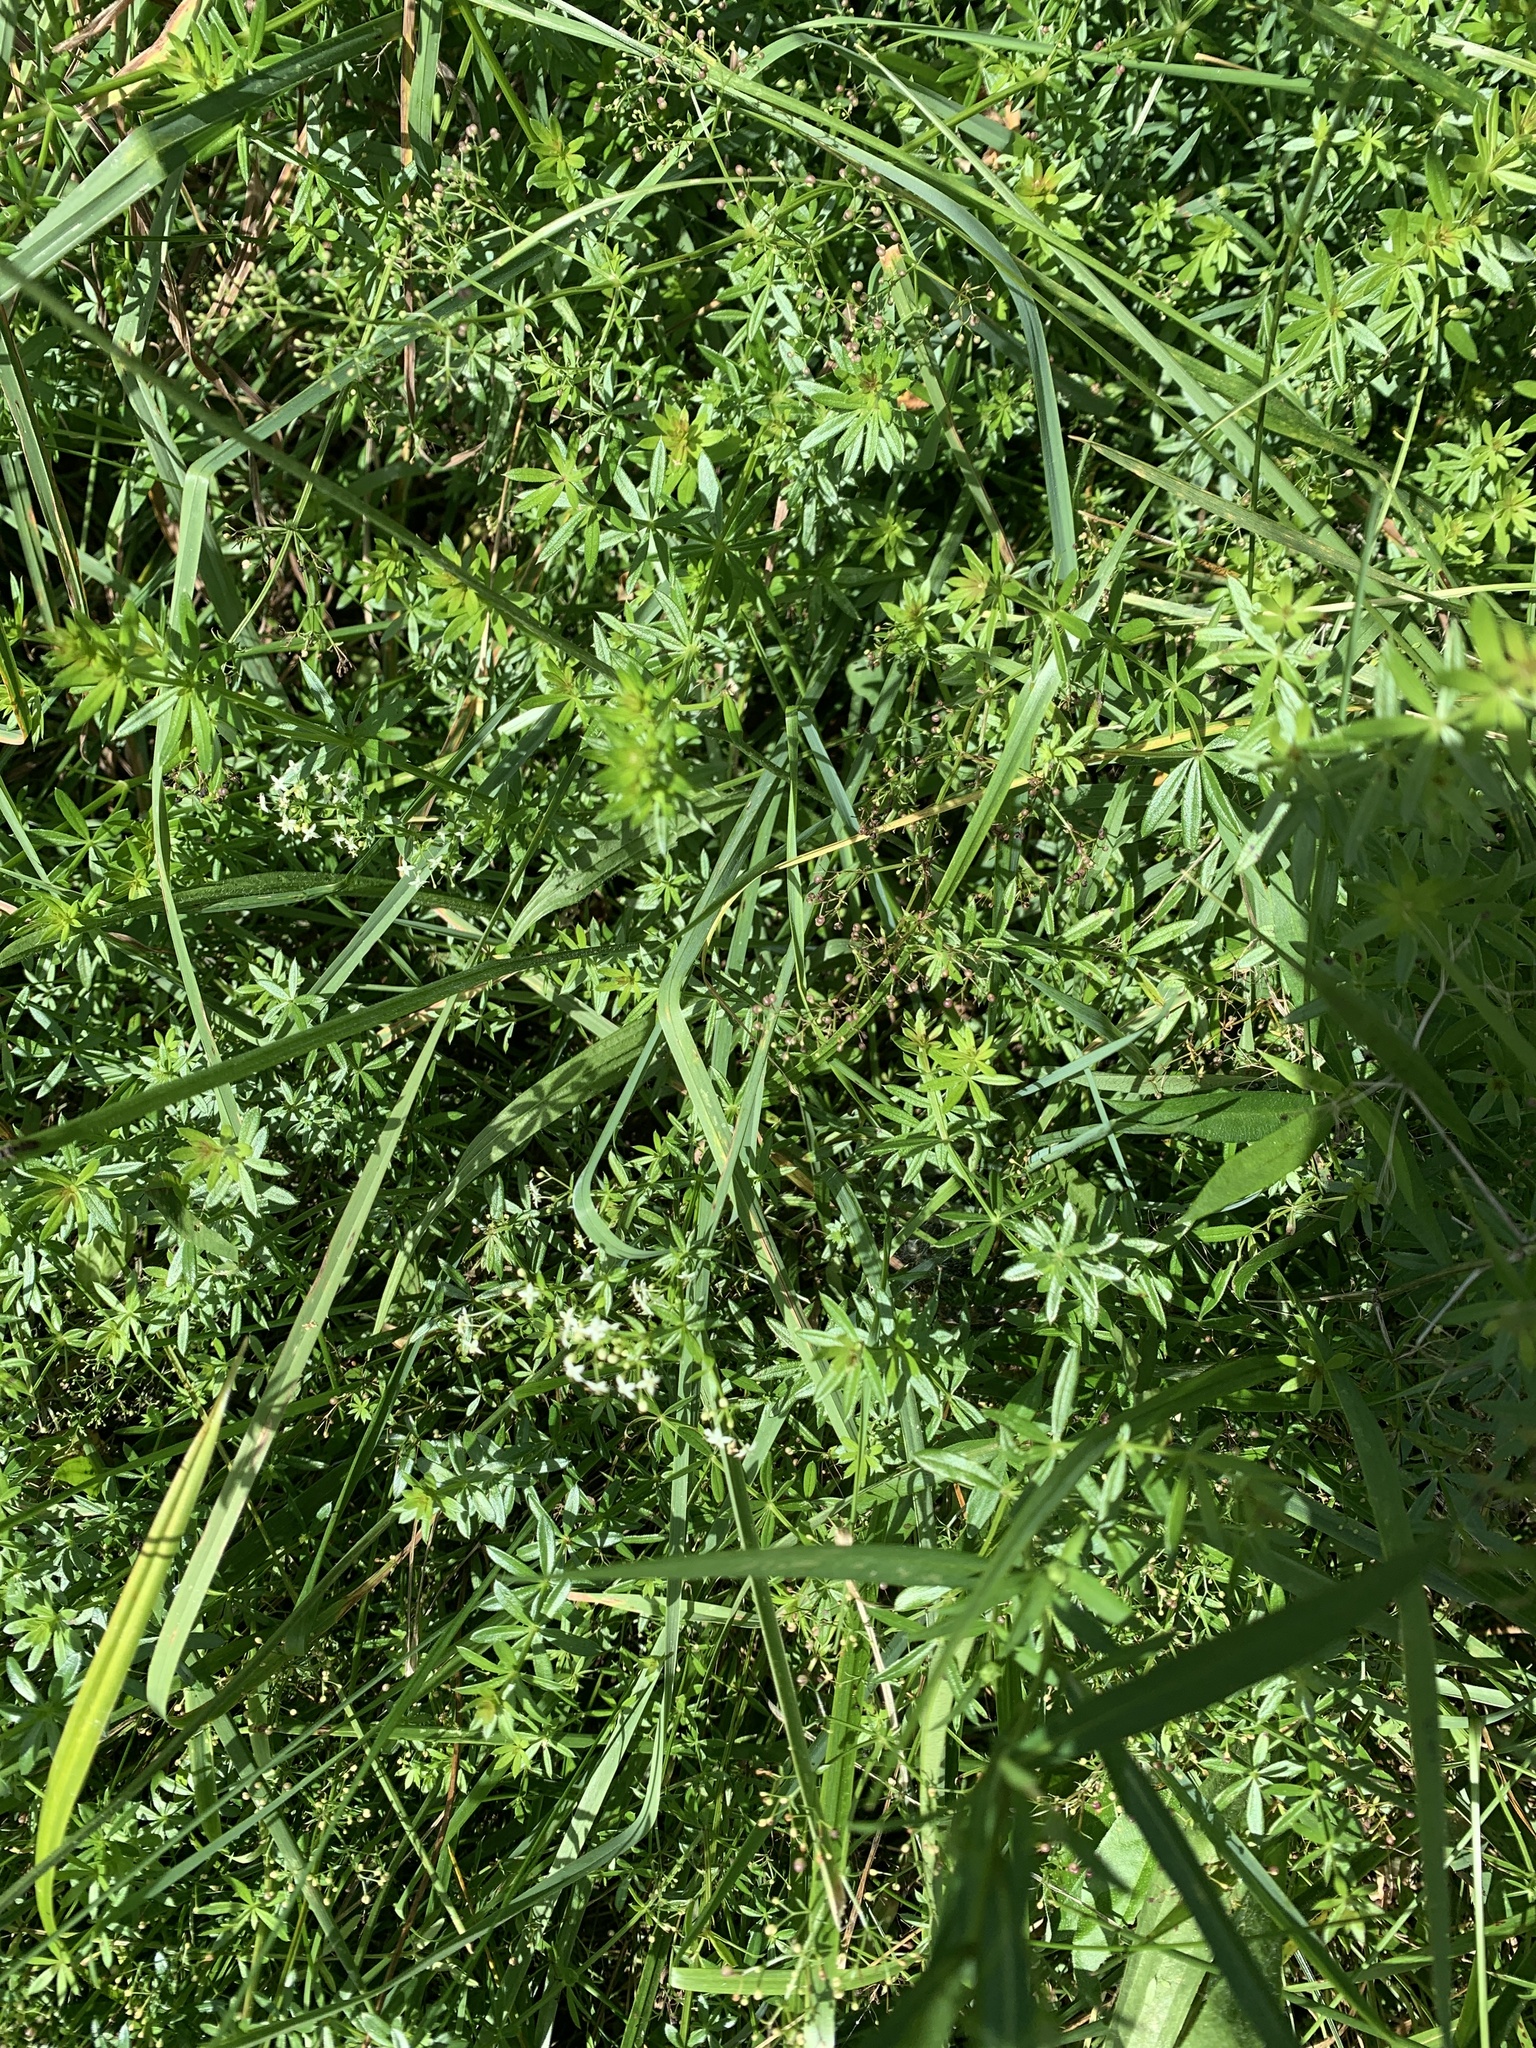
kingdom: Plantae
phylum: Tracheophyta
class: Magnoliopsida
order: Gentianales
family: Rubiaceae
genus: Galium
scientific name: Galium mollugo
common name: Hedge bedstraw
